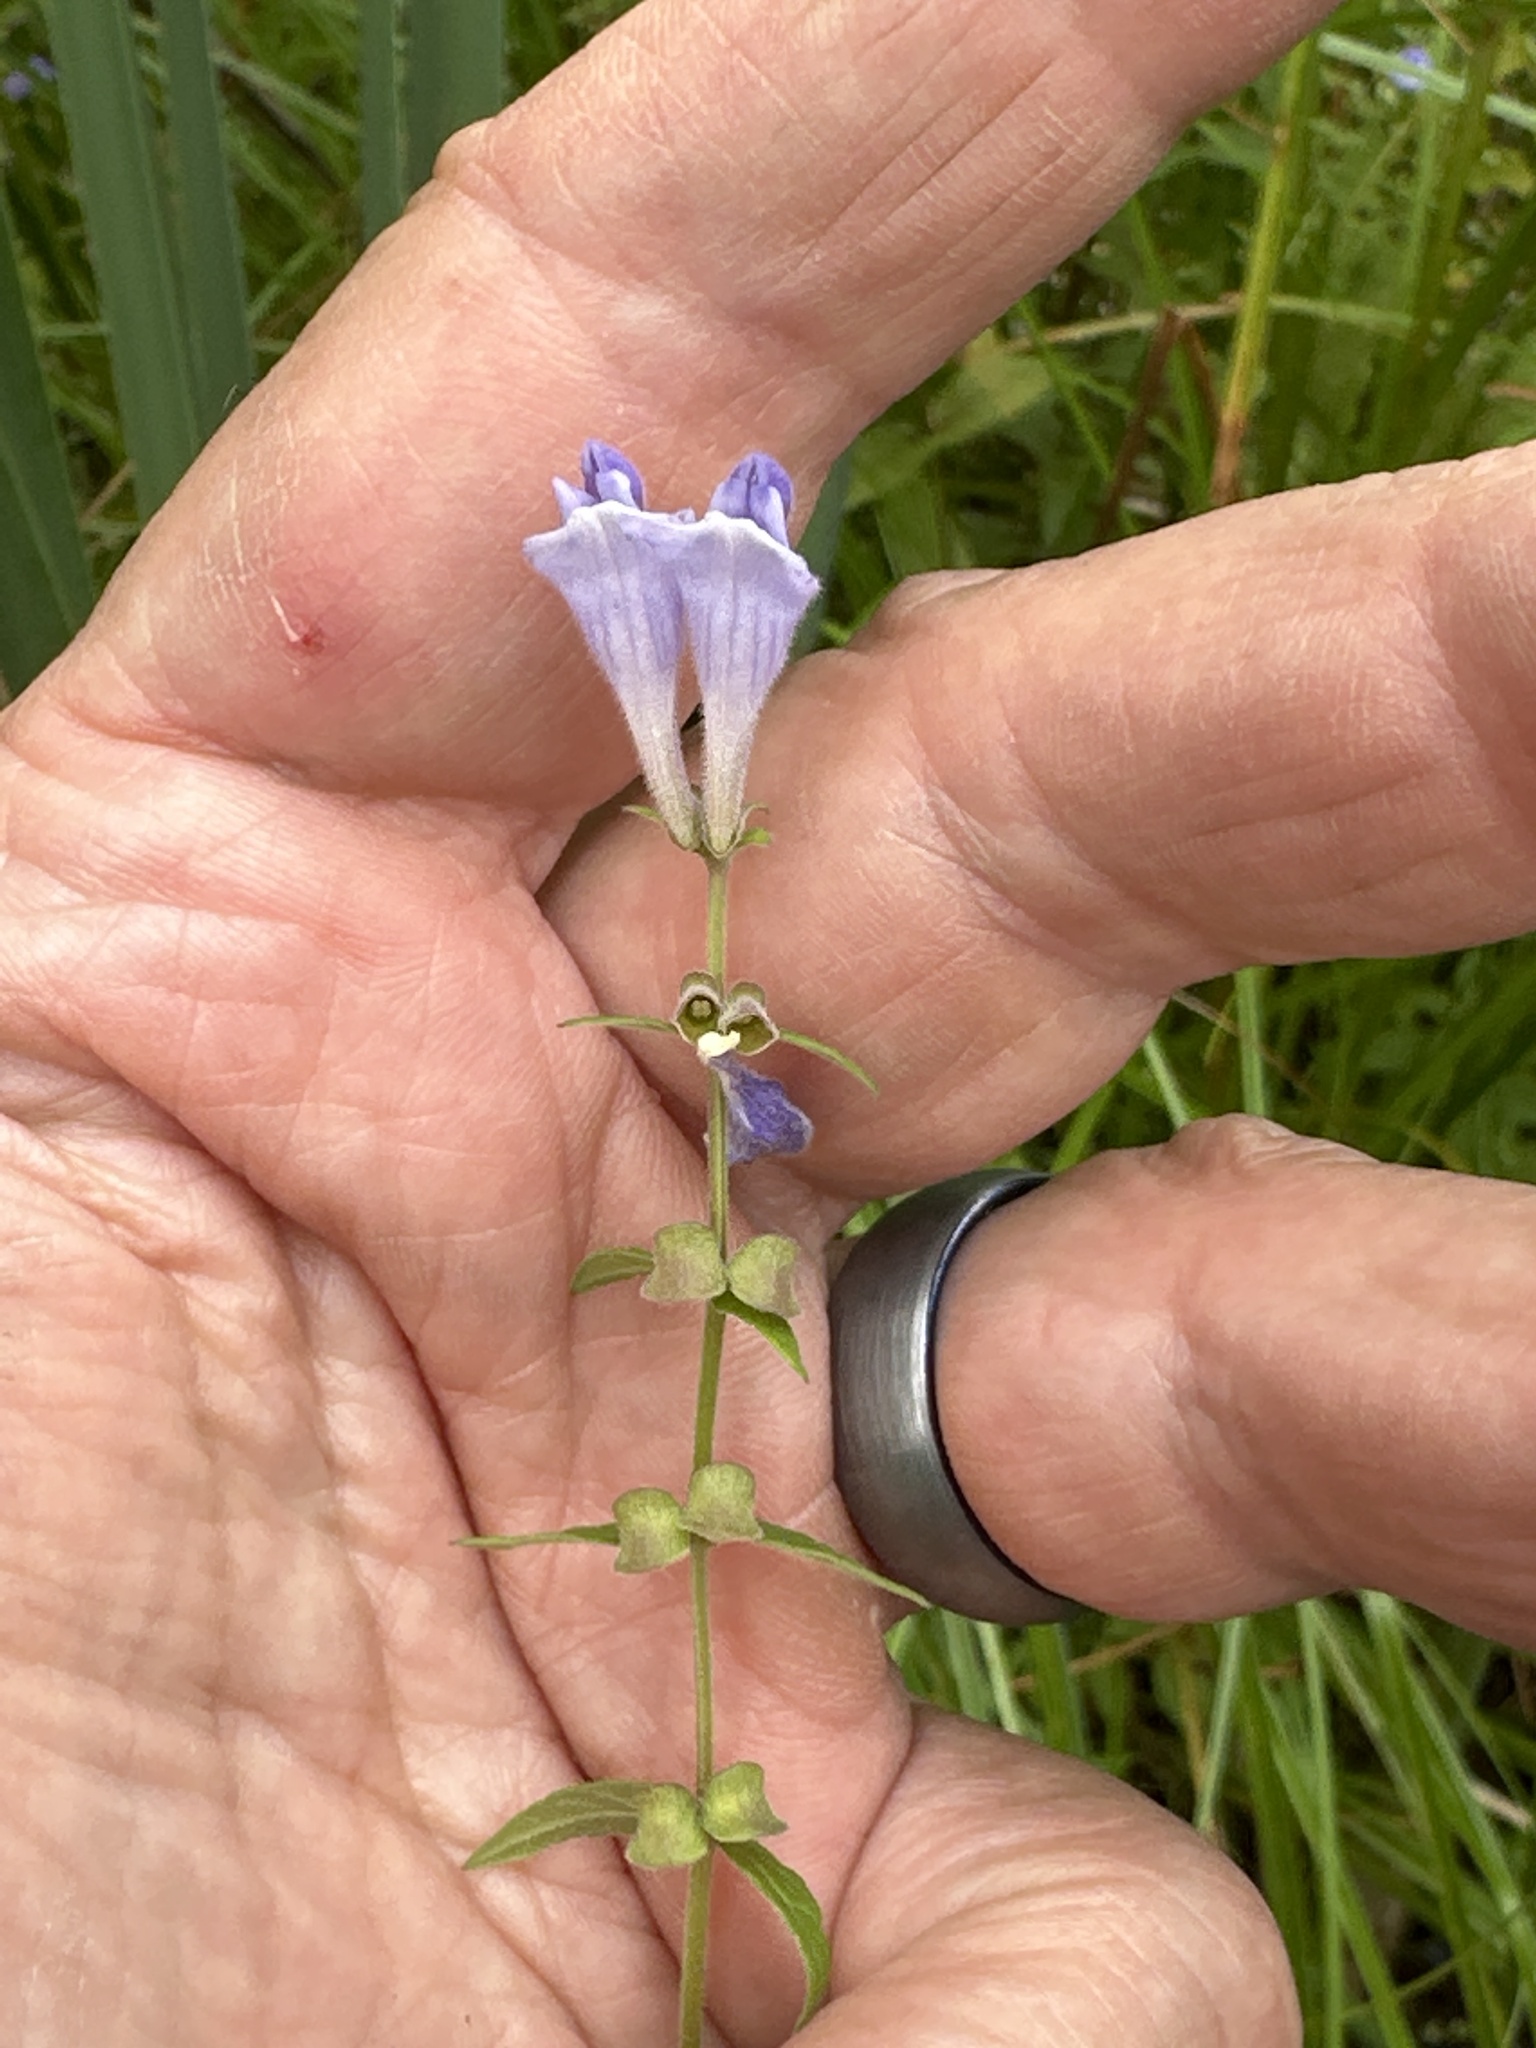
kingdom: Plantae
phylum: Tracheophyta
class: Magnoliopsida
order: Lamiales
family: Lamiaceae
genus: Scutellaria
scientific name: Scutellaria galericulata
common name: Skullcap
